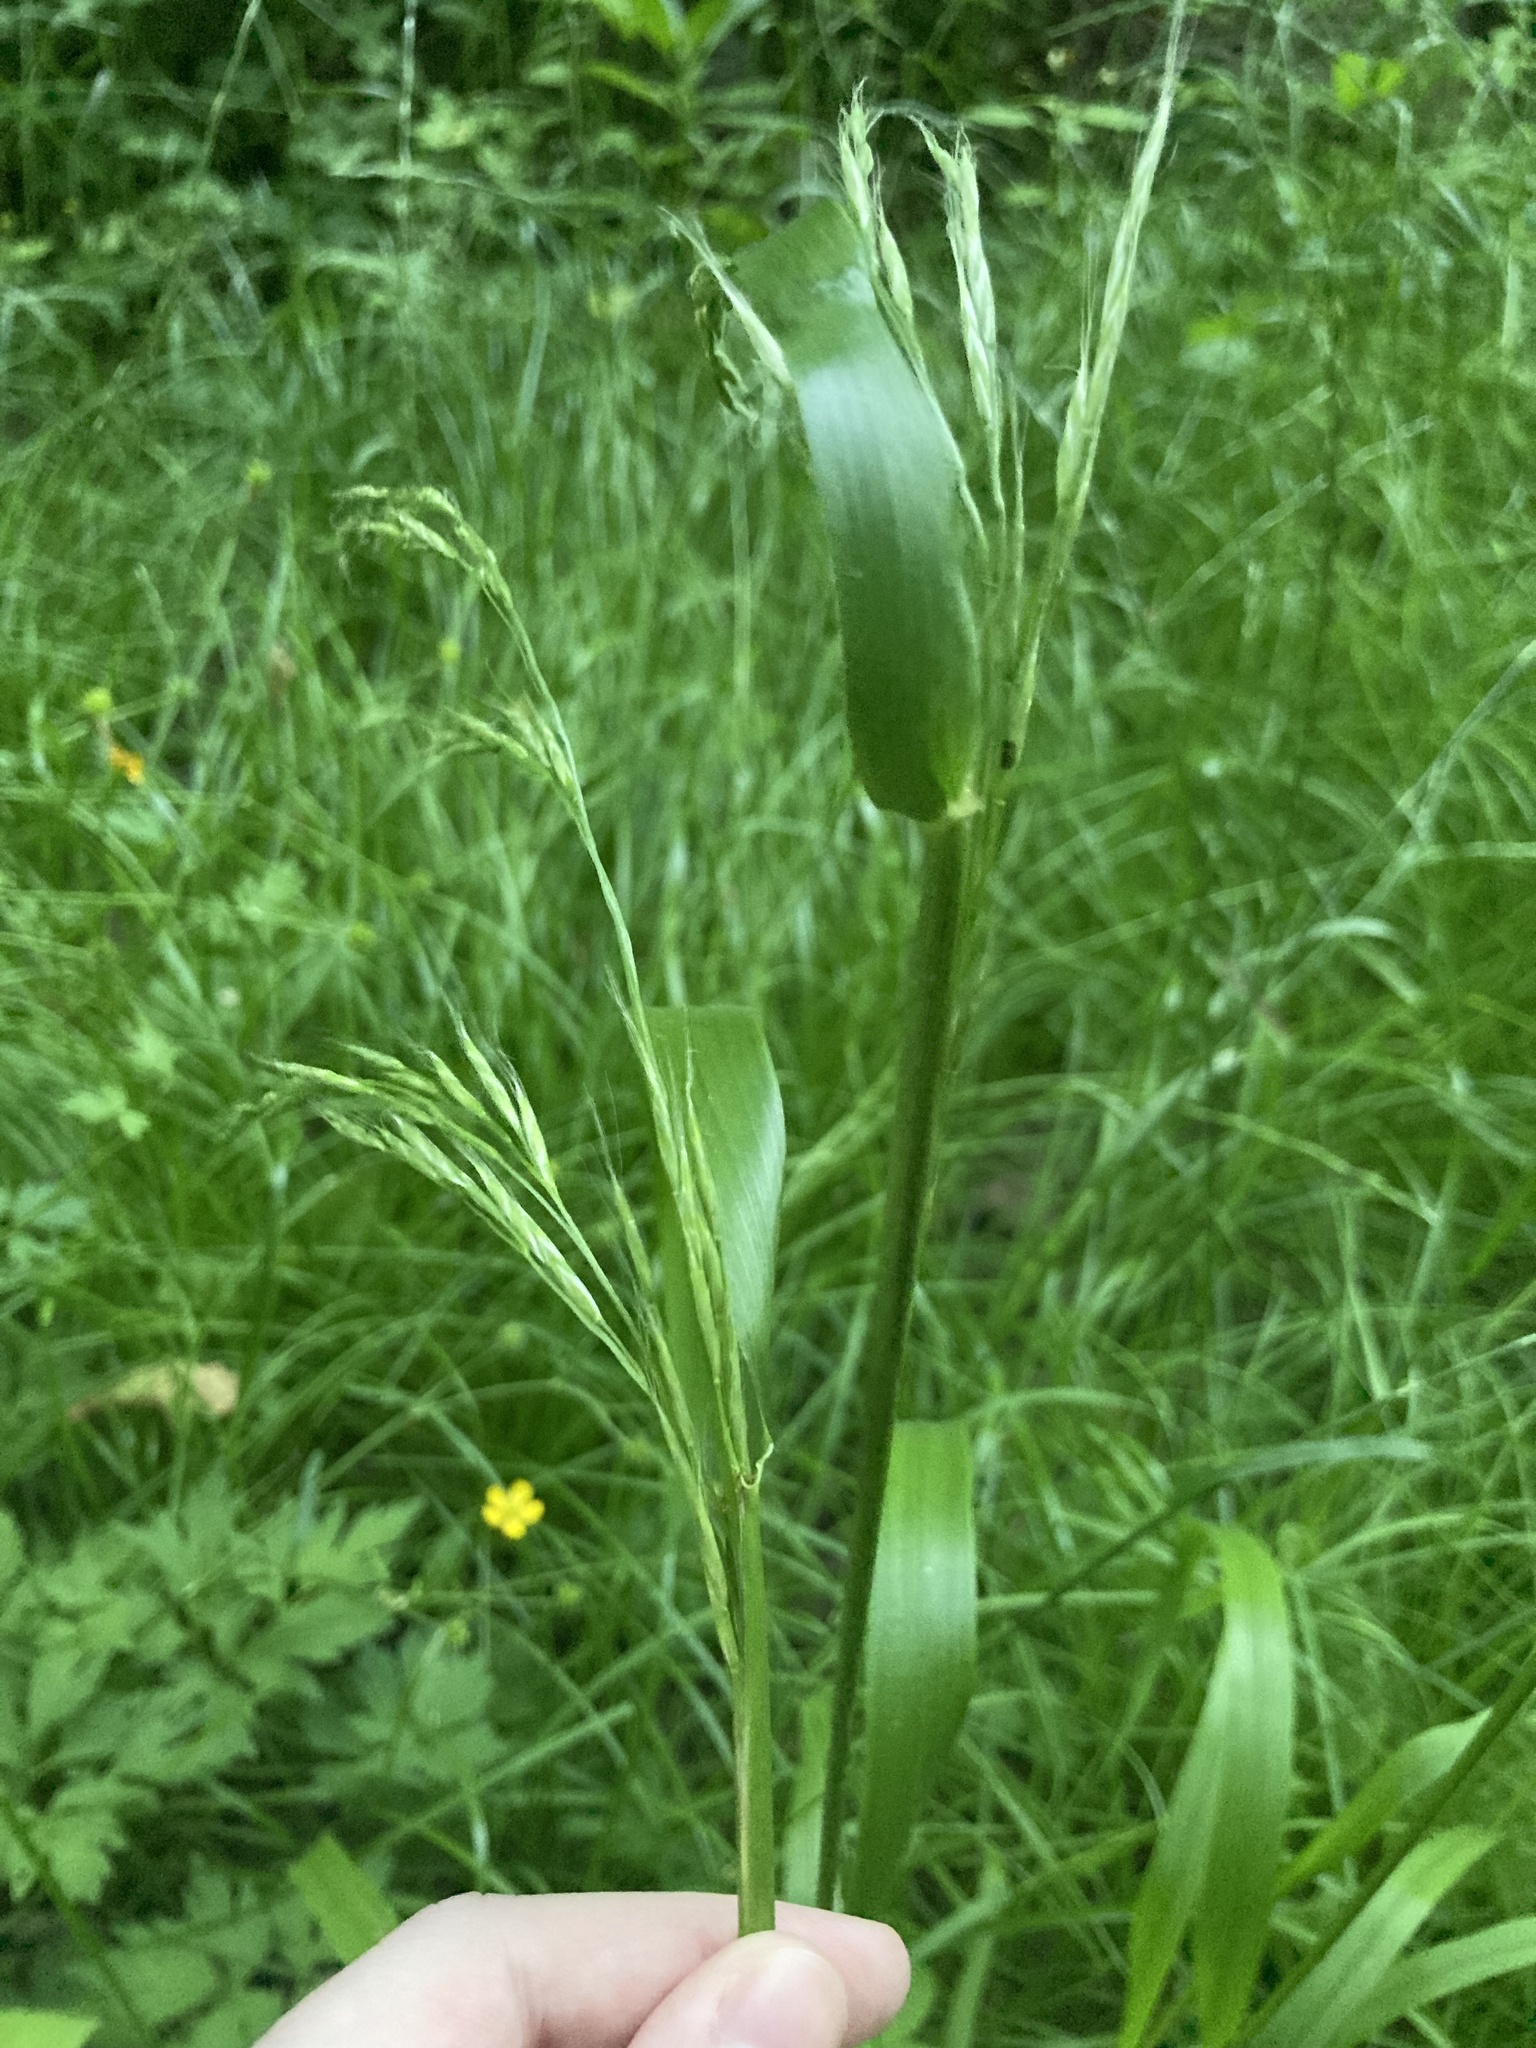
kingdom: Plantae
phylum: Tracheophyta
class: Liliopsida
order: Poales
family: Poaceae
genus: Lolium
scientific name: Lolium giganteum
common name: Giant fescue
